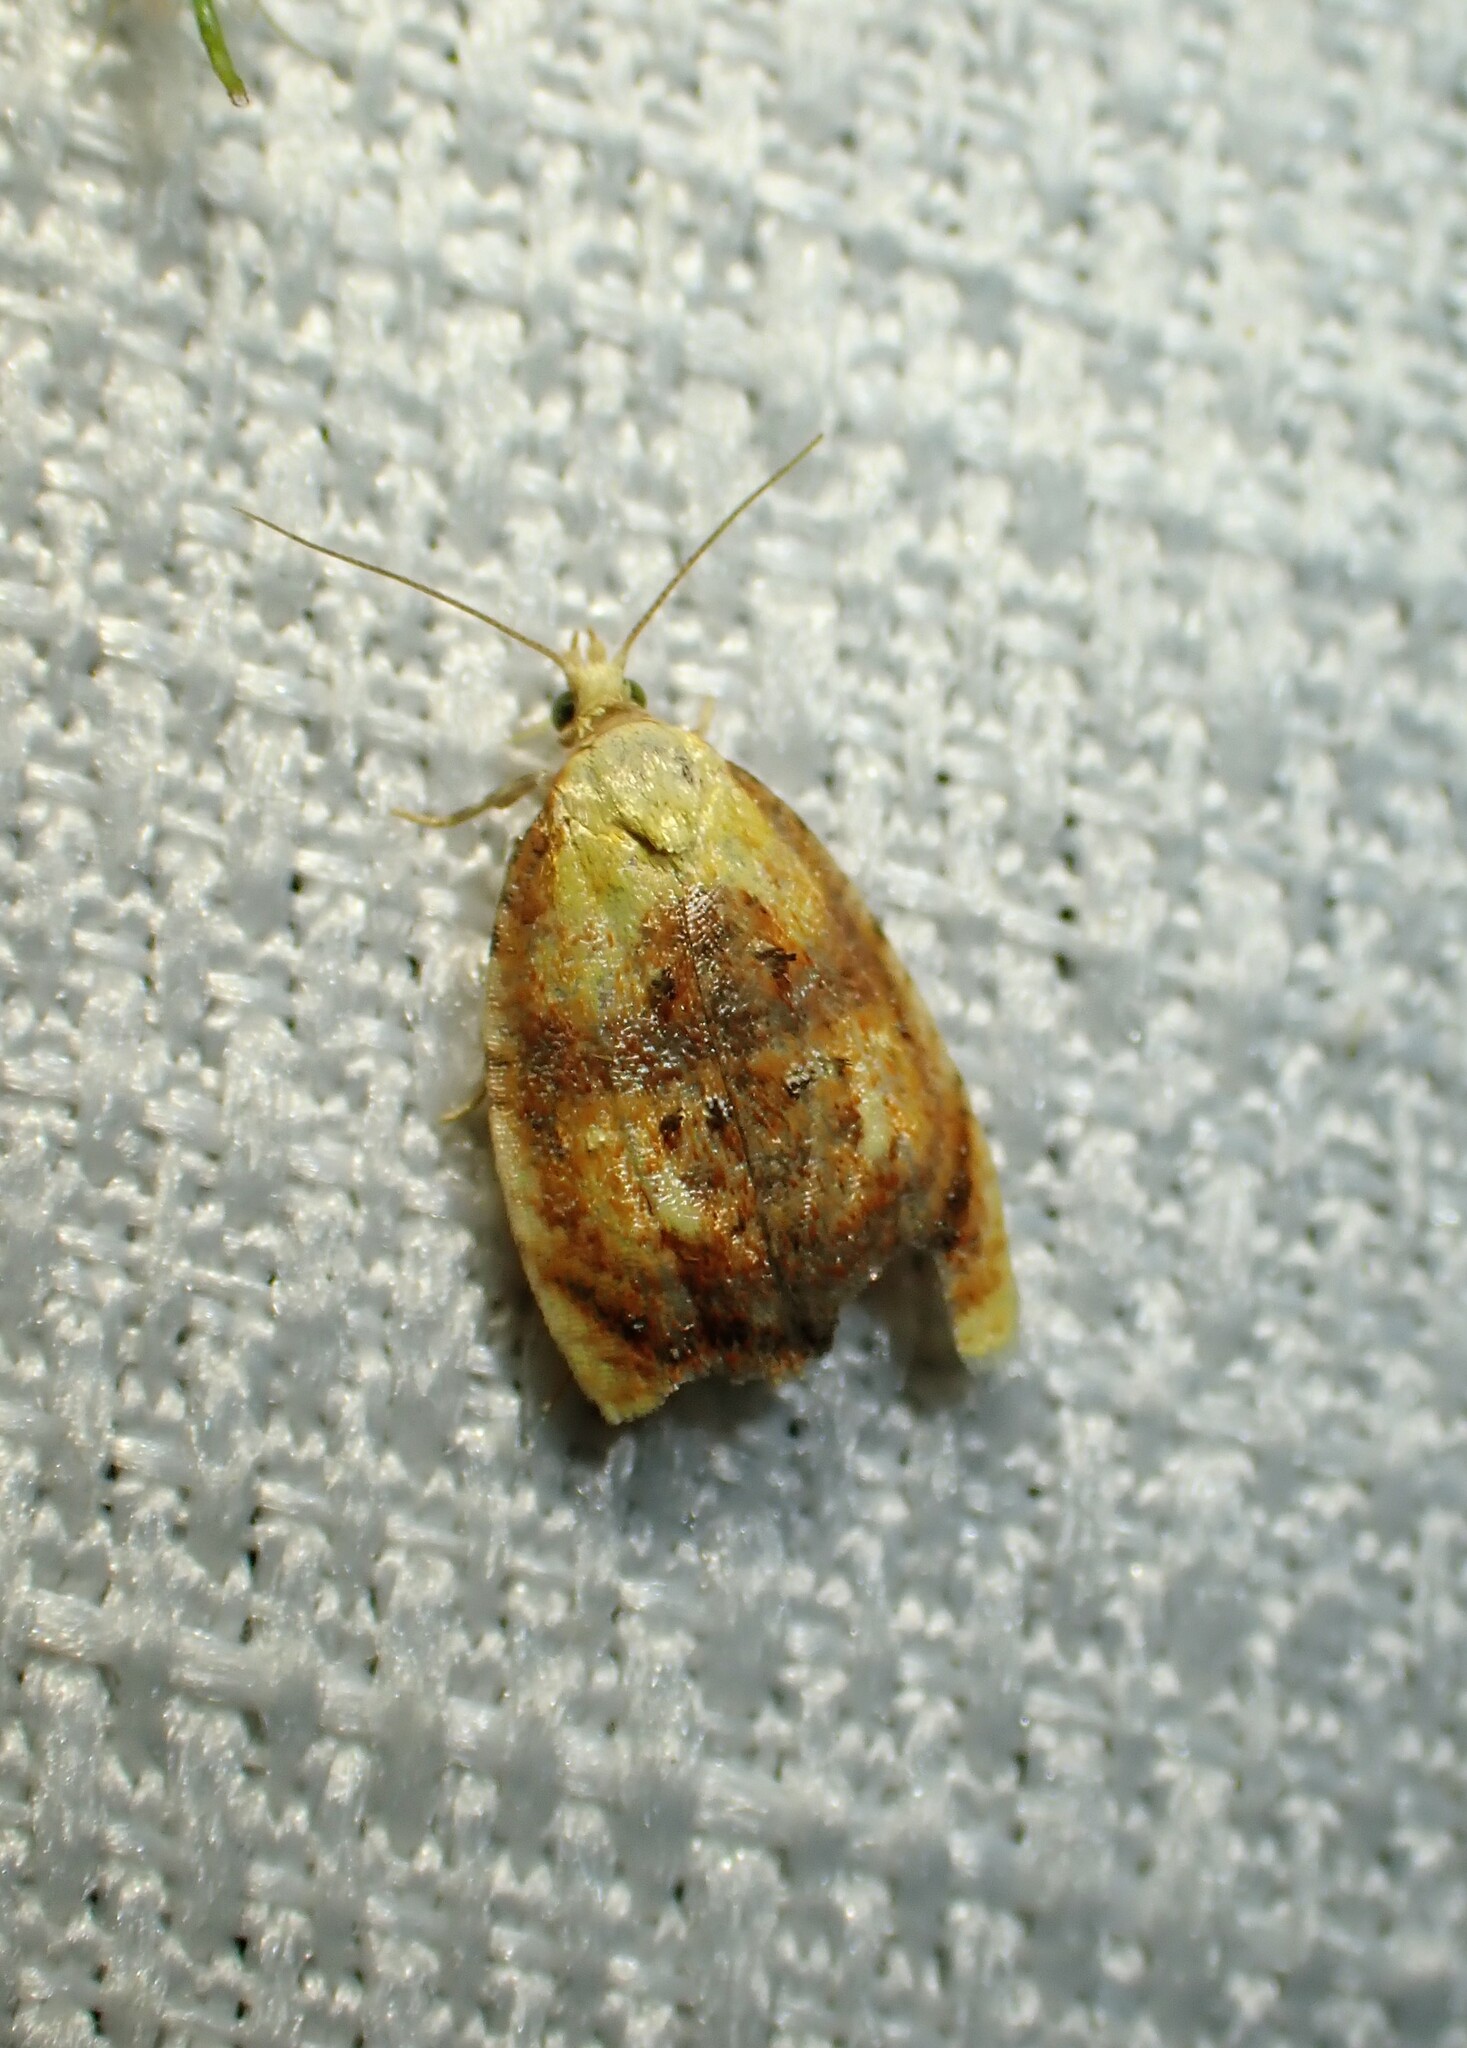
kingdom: Animalia
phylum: Arthropoda
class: Insecta
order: Lepidoptera
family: Tortricidae
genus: Acleris
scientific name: Acleris curvalana
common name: Blueberry leaftier moth
